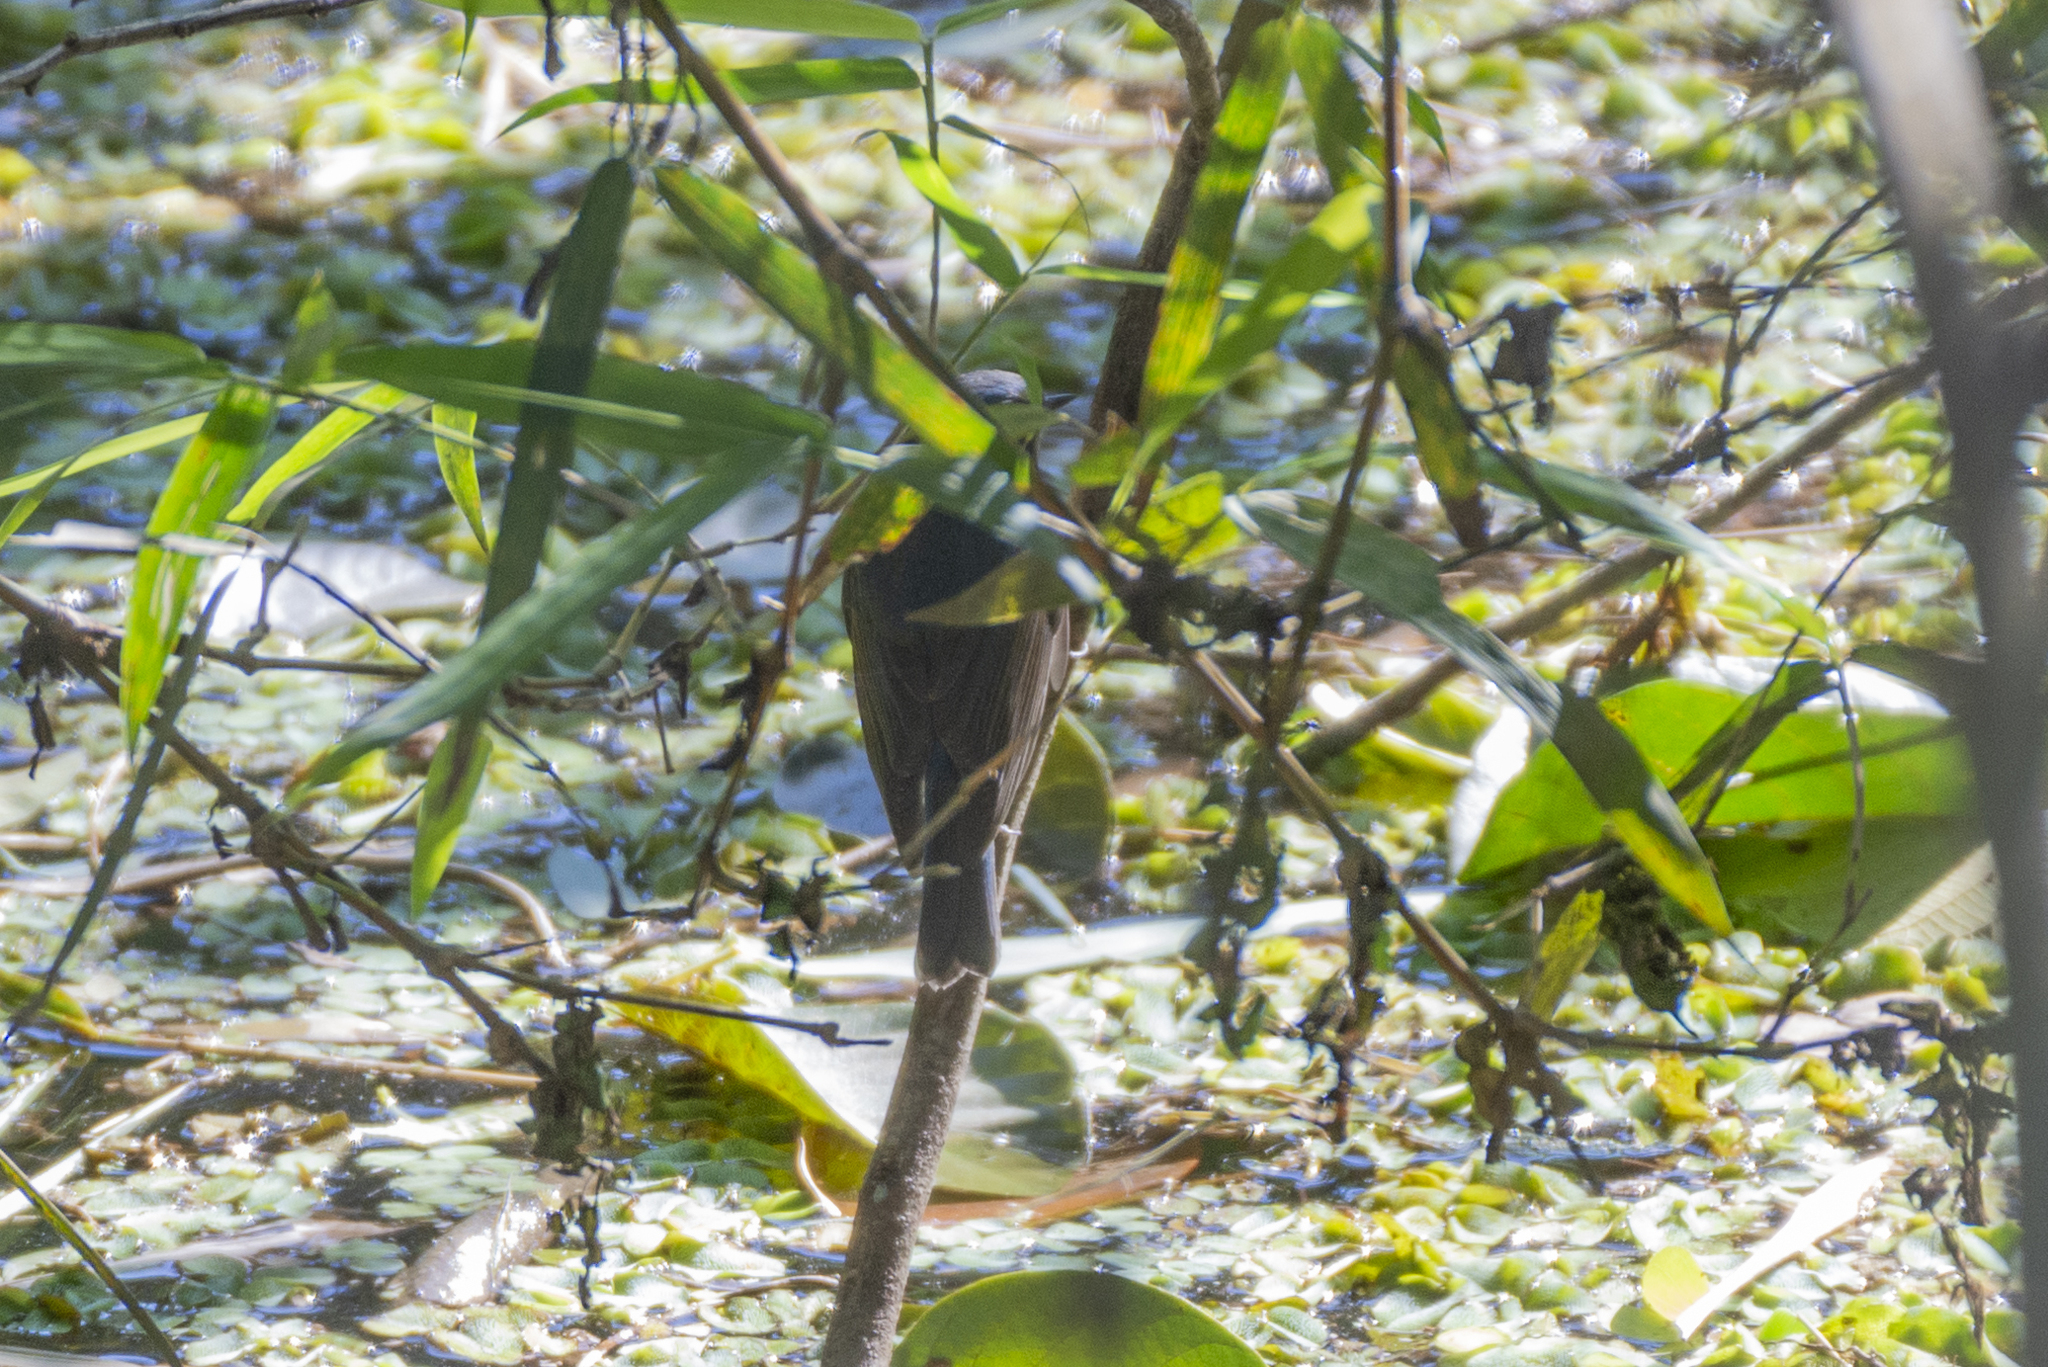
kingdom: Animalia
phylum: Chordata
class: Aves
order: Passeriformes
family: Muscicapidae
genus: Tarsiger
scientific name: Tarsiger cyanurus
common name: Red-flanked bluetail
